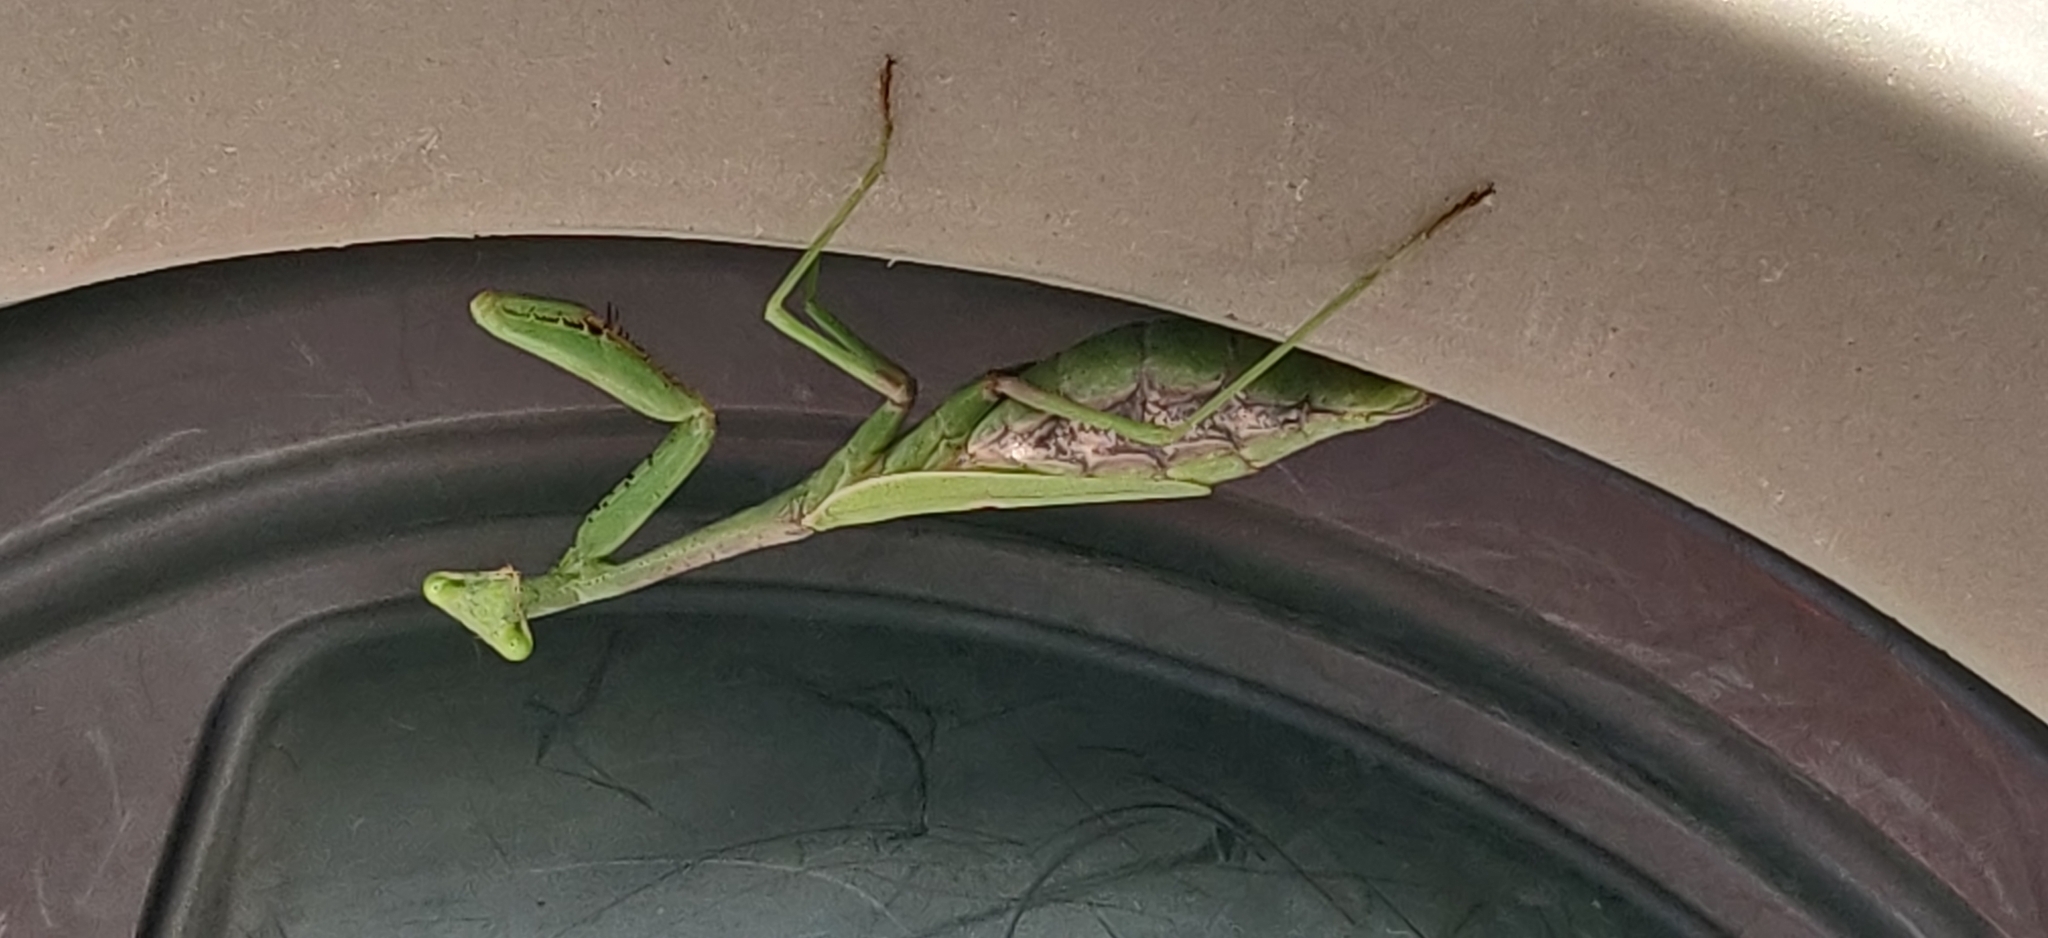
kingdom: Animalia
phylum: Arthropoda
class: Insecta
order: Mantodea
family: Mantidae
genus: Stagmomantis
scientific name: Stagmomantis carolina
